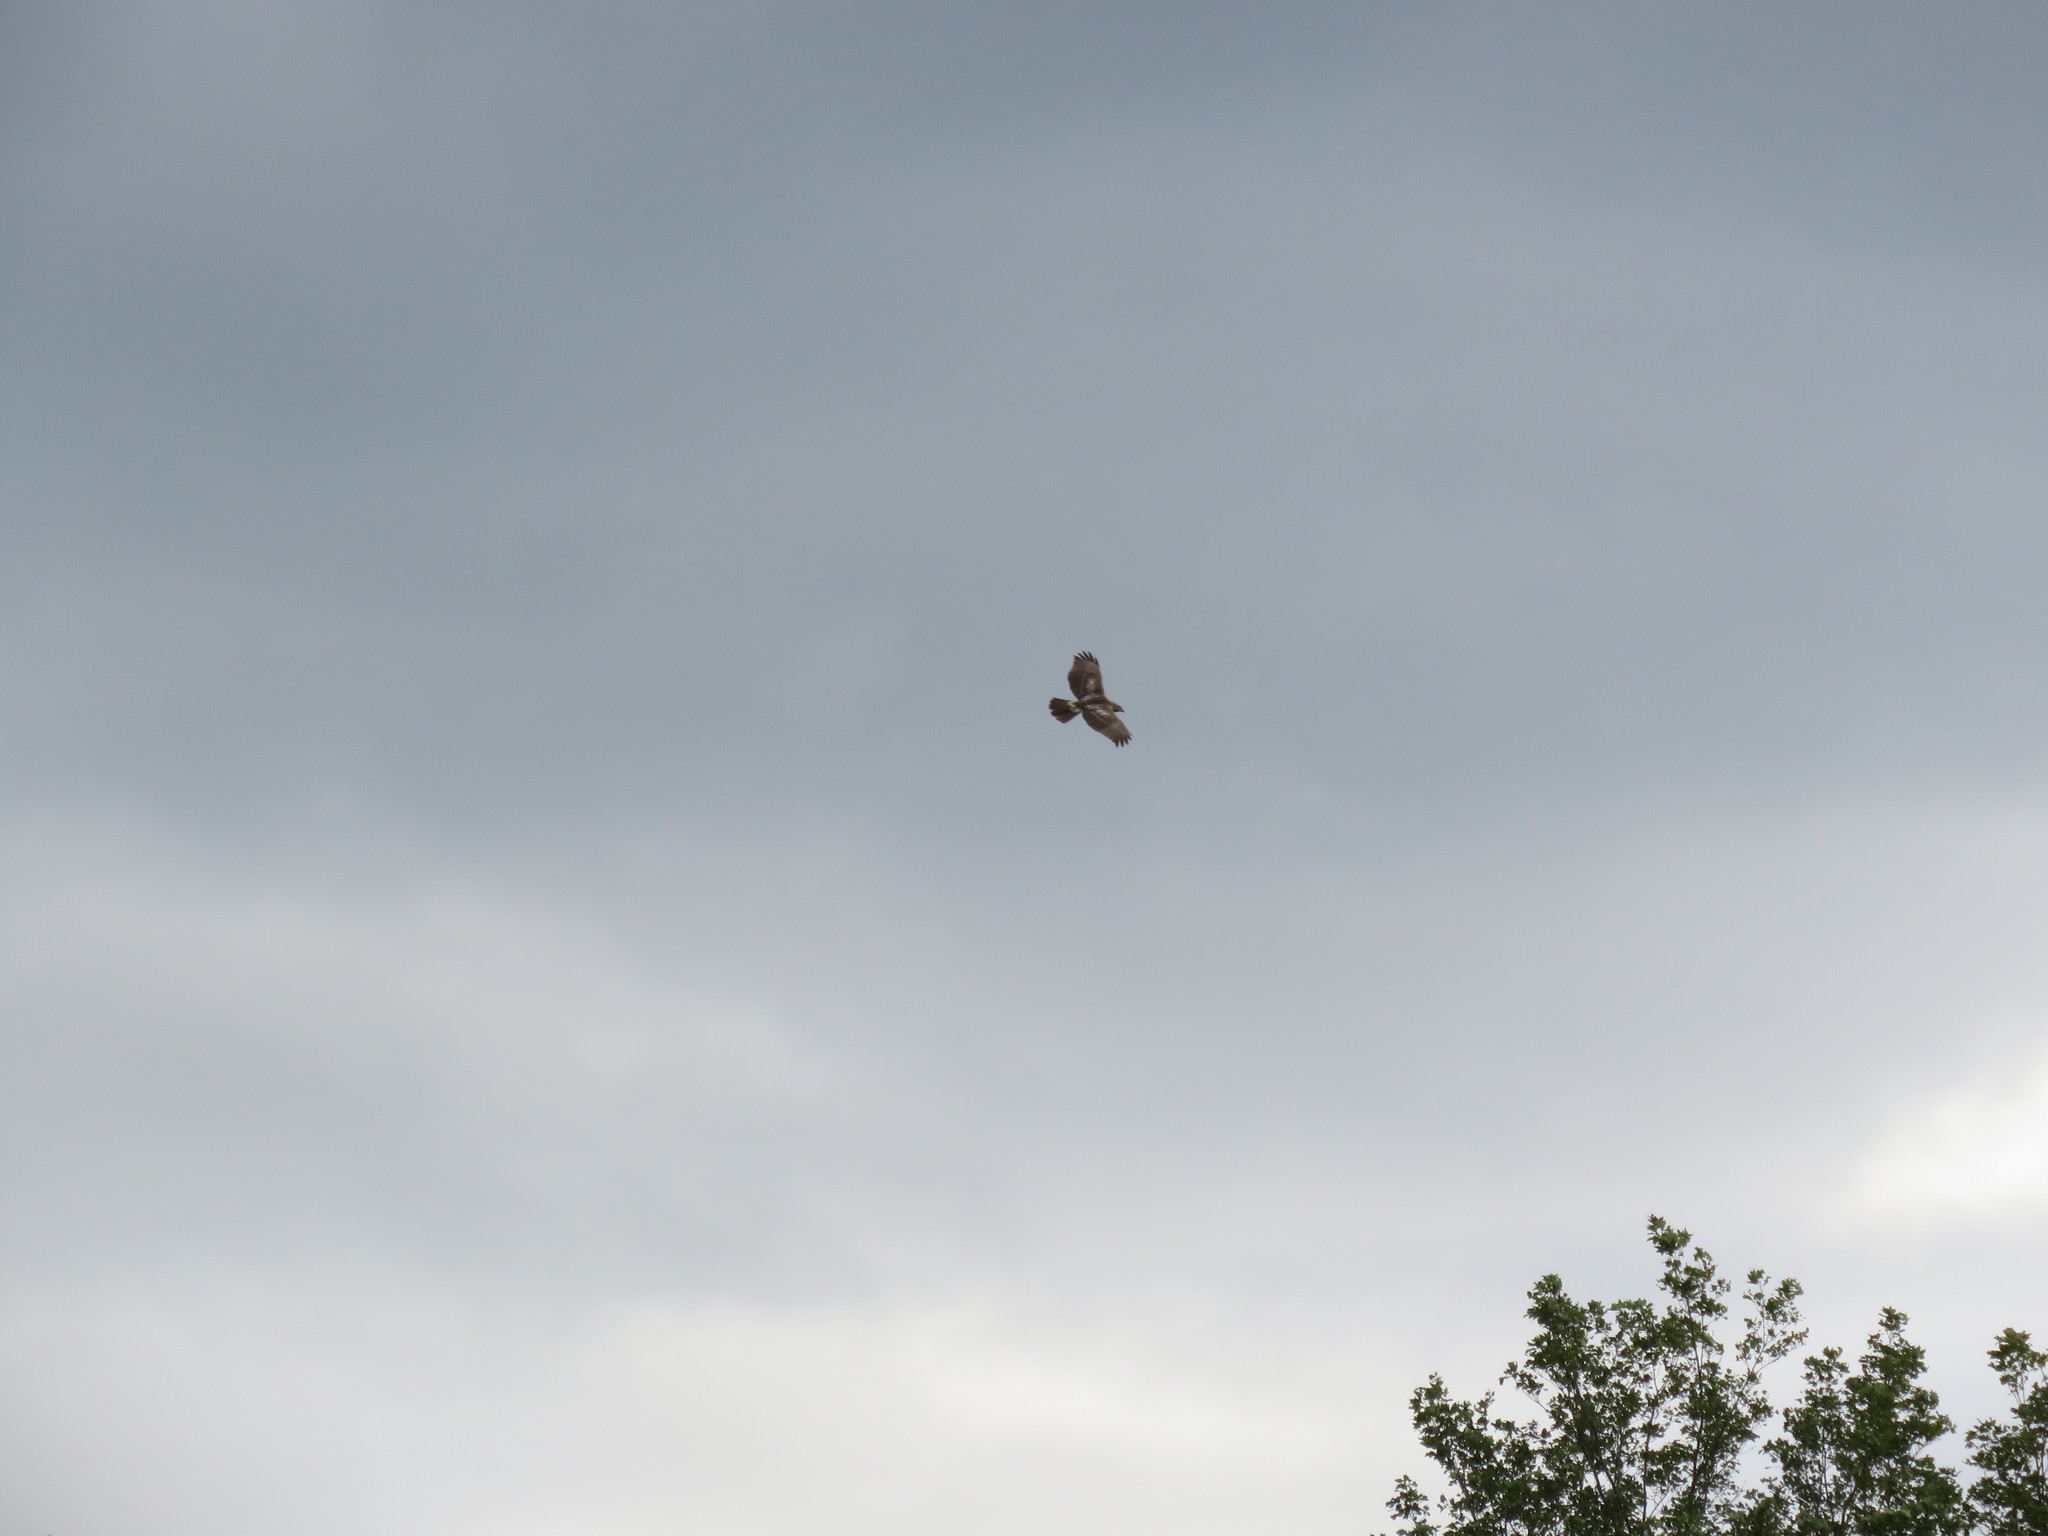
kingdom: Animalia
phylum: Chordata
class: Aves
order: Accipitriformes
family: Accipitridae
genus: Buteo
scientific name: Buteo jamaicensis
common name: Red-tailed hawk
